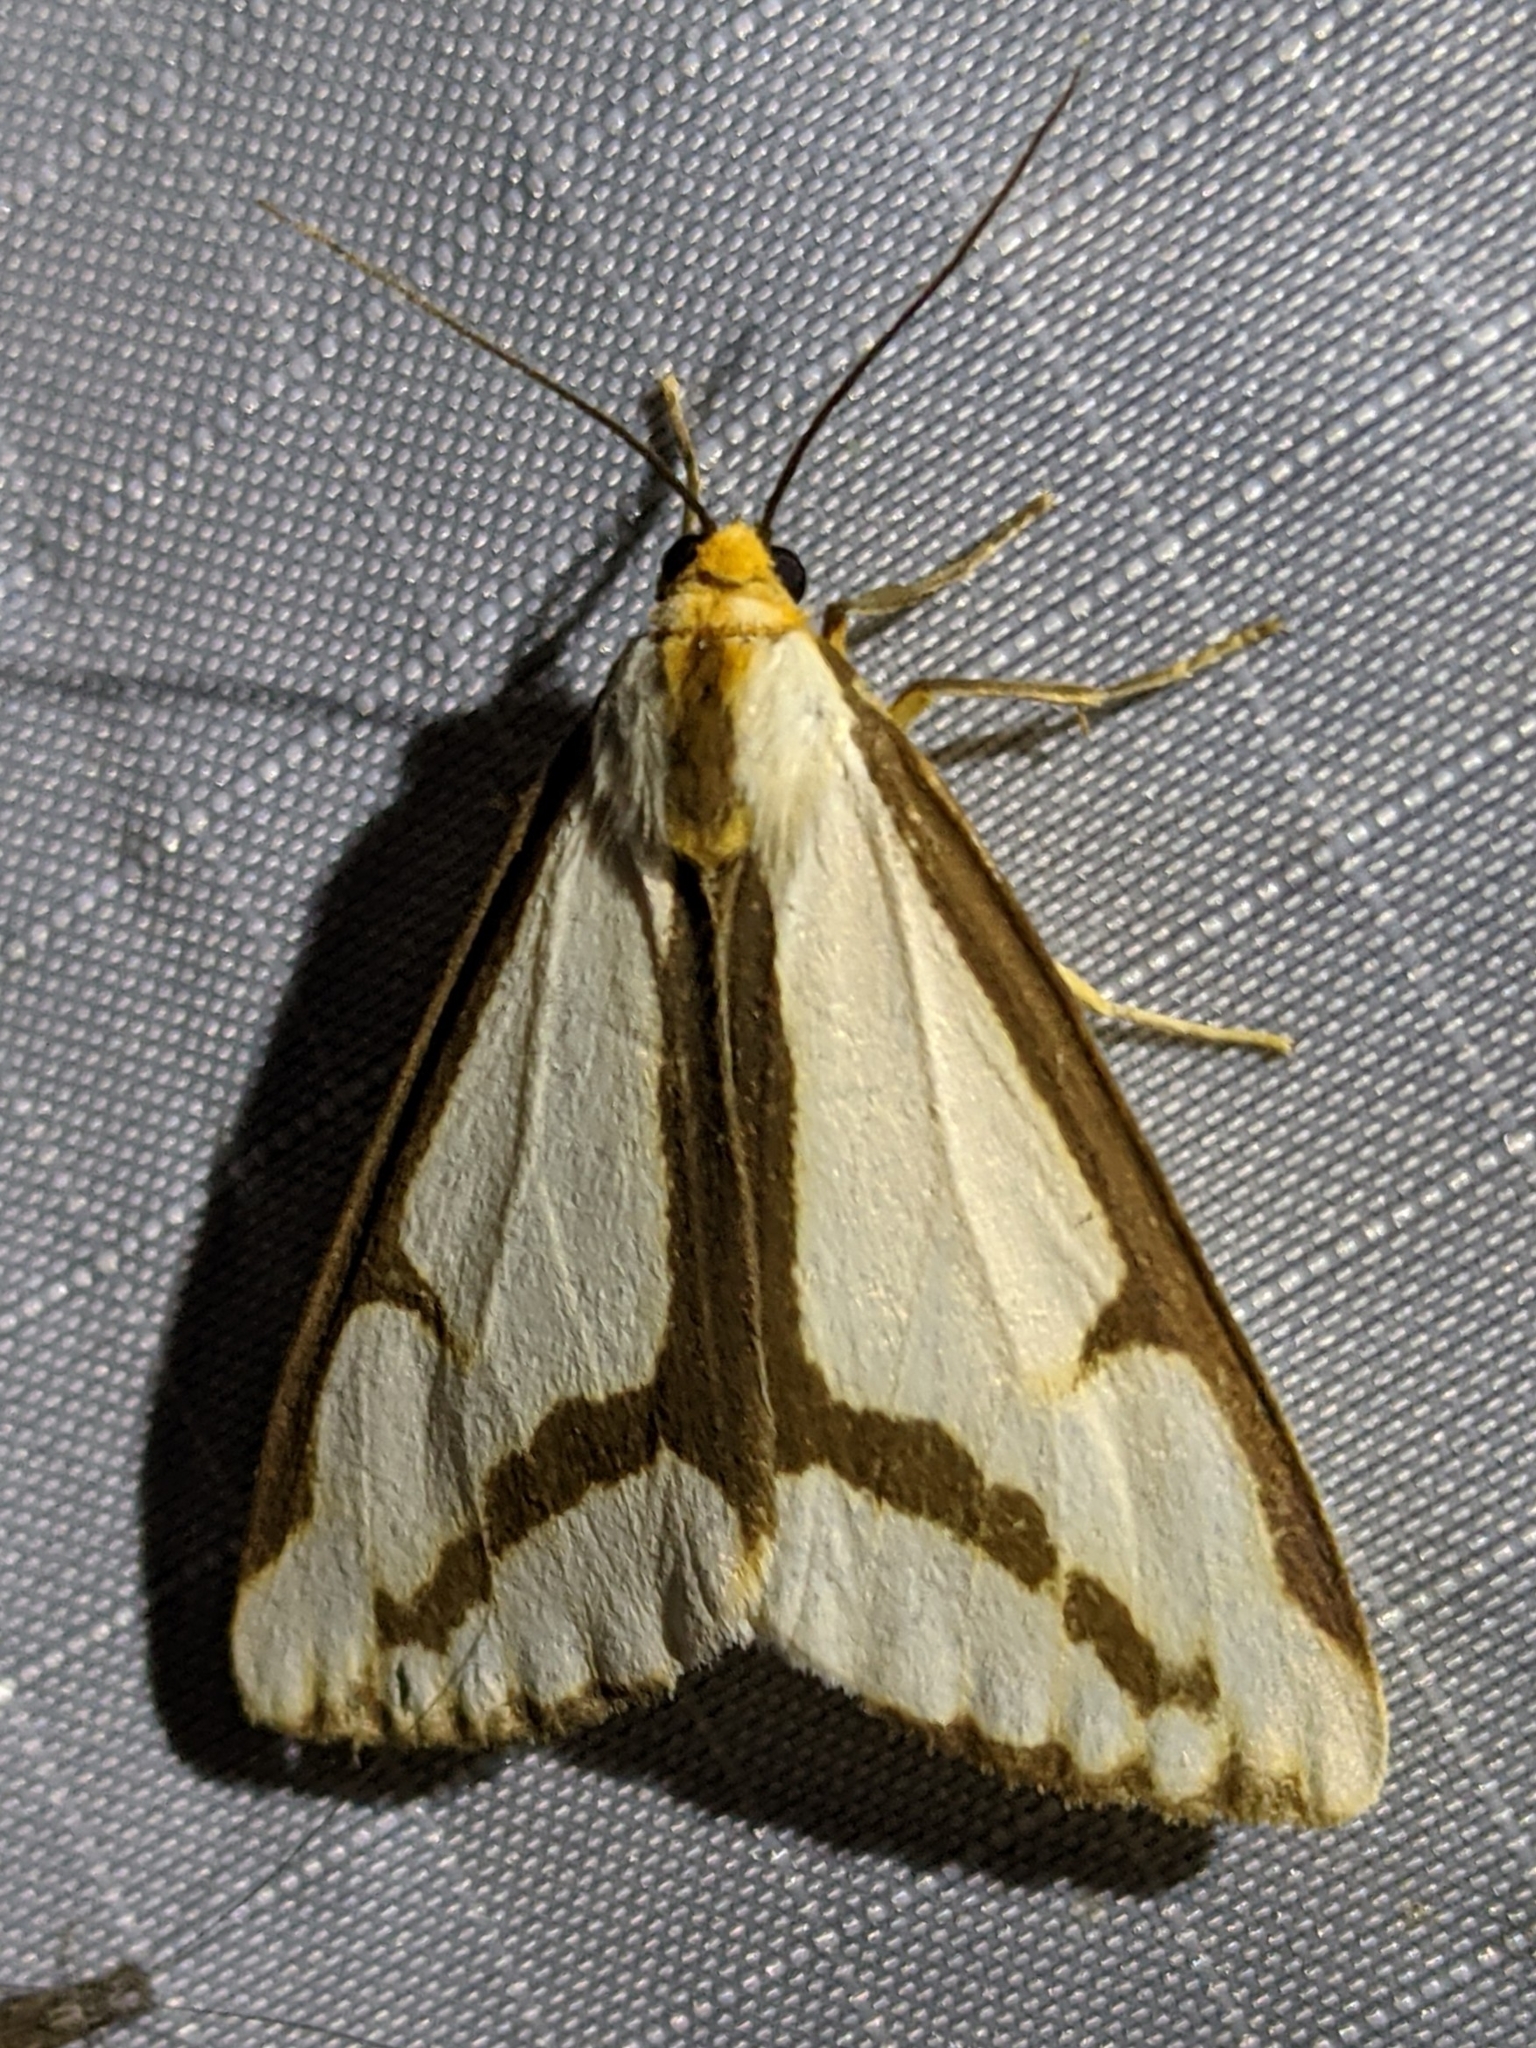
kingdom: Animalia
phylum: Arthropoda
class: Insecta
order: Lepidoptera
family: Erebidae
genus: Haploa
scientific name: Haploa lecontei
